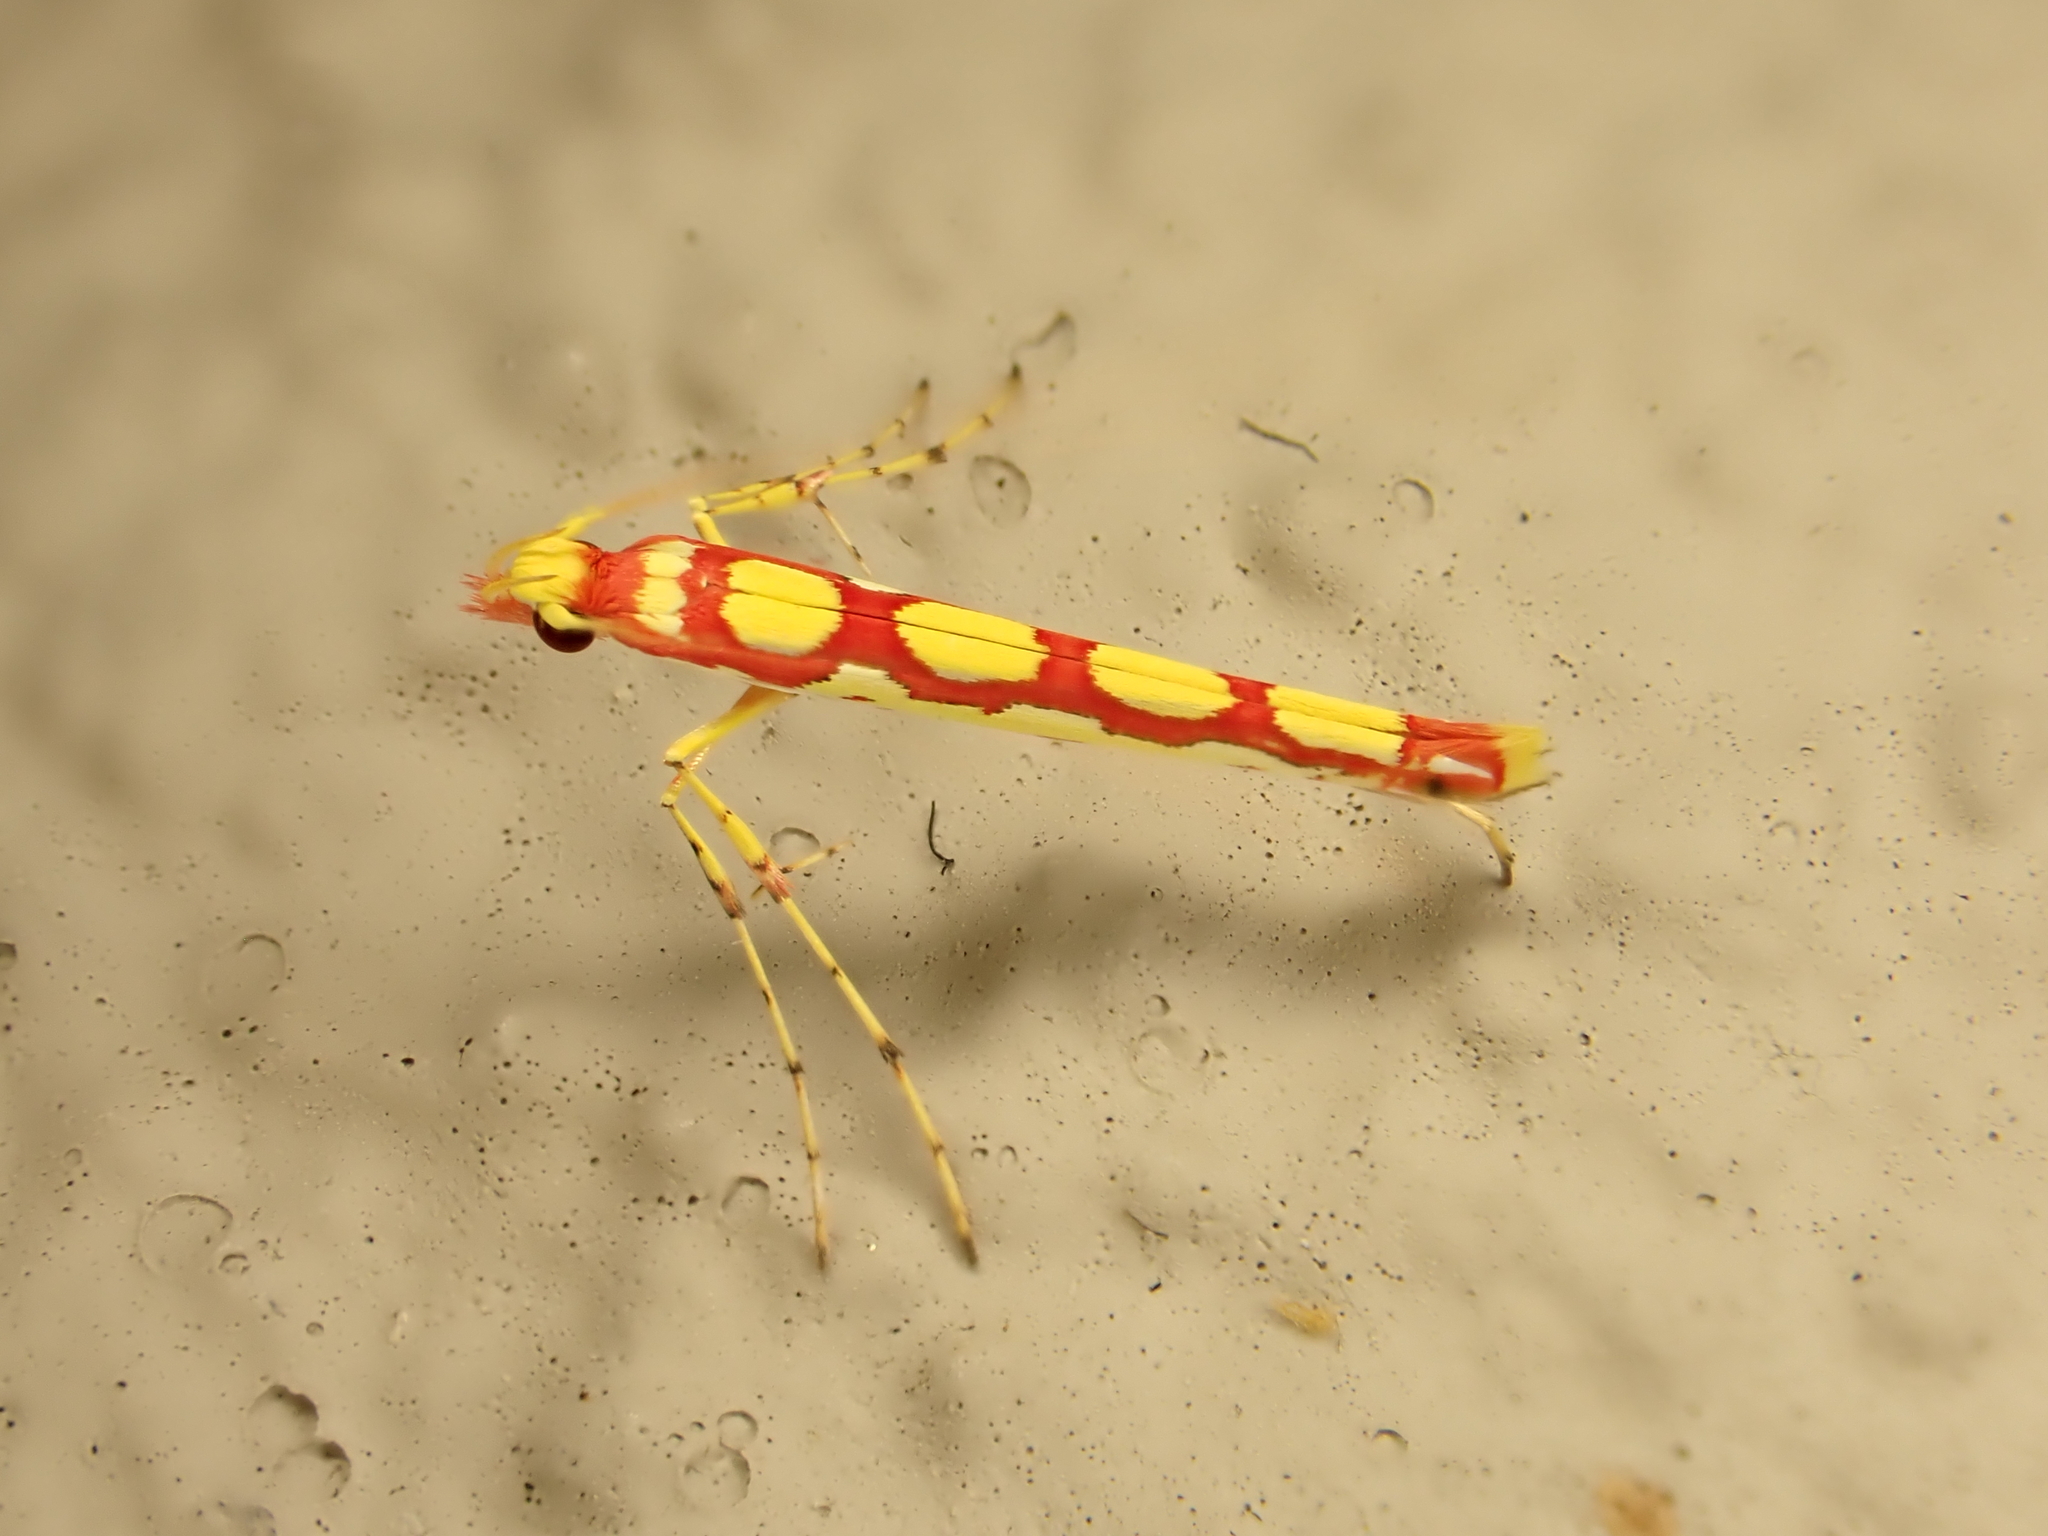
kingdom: Animalia
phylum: Arthropoda
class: Insecta
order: Lepidoptera
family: Gracillariidae
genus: Macarostola
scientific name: Macarostola miniella
